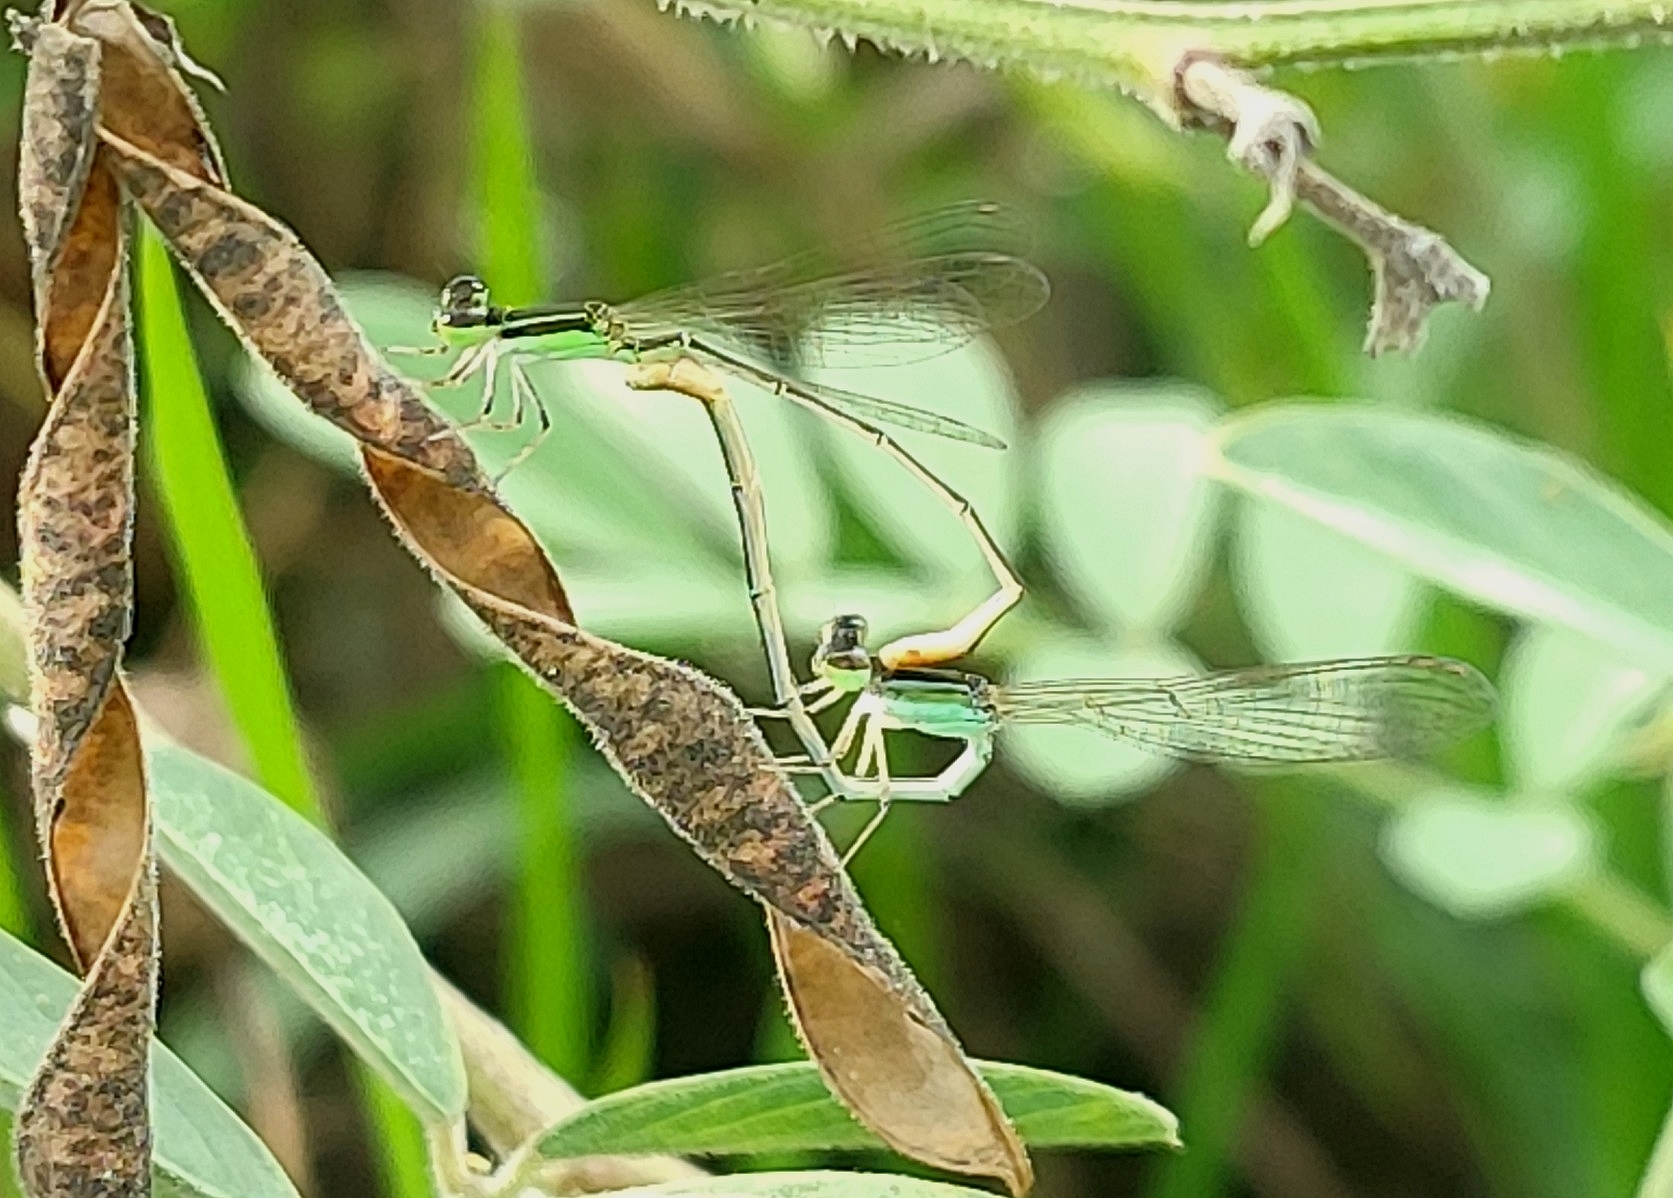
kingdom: Animalia
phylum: Arthropoda
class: Insecta
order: Odonata
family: Coenagrionidae
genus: Agriocnemis
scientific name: Agriocnemis pygmaea
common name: Pygmy wisp
